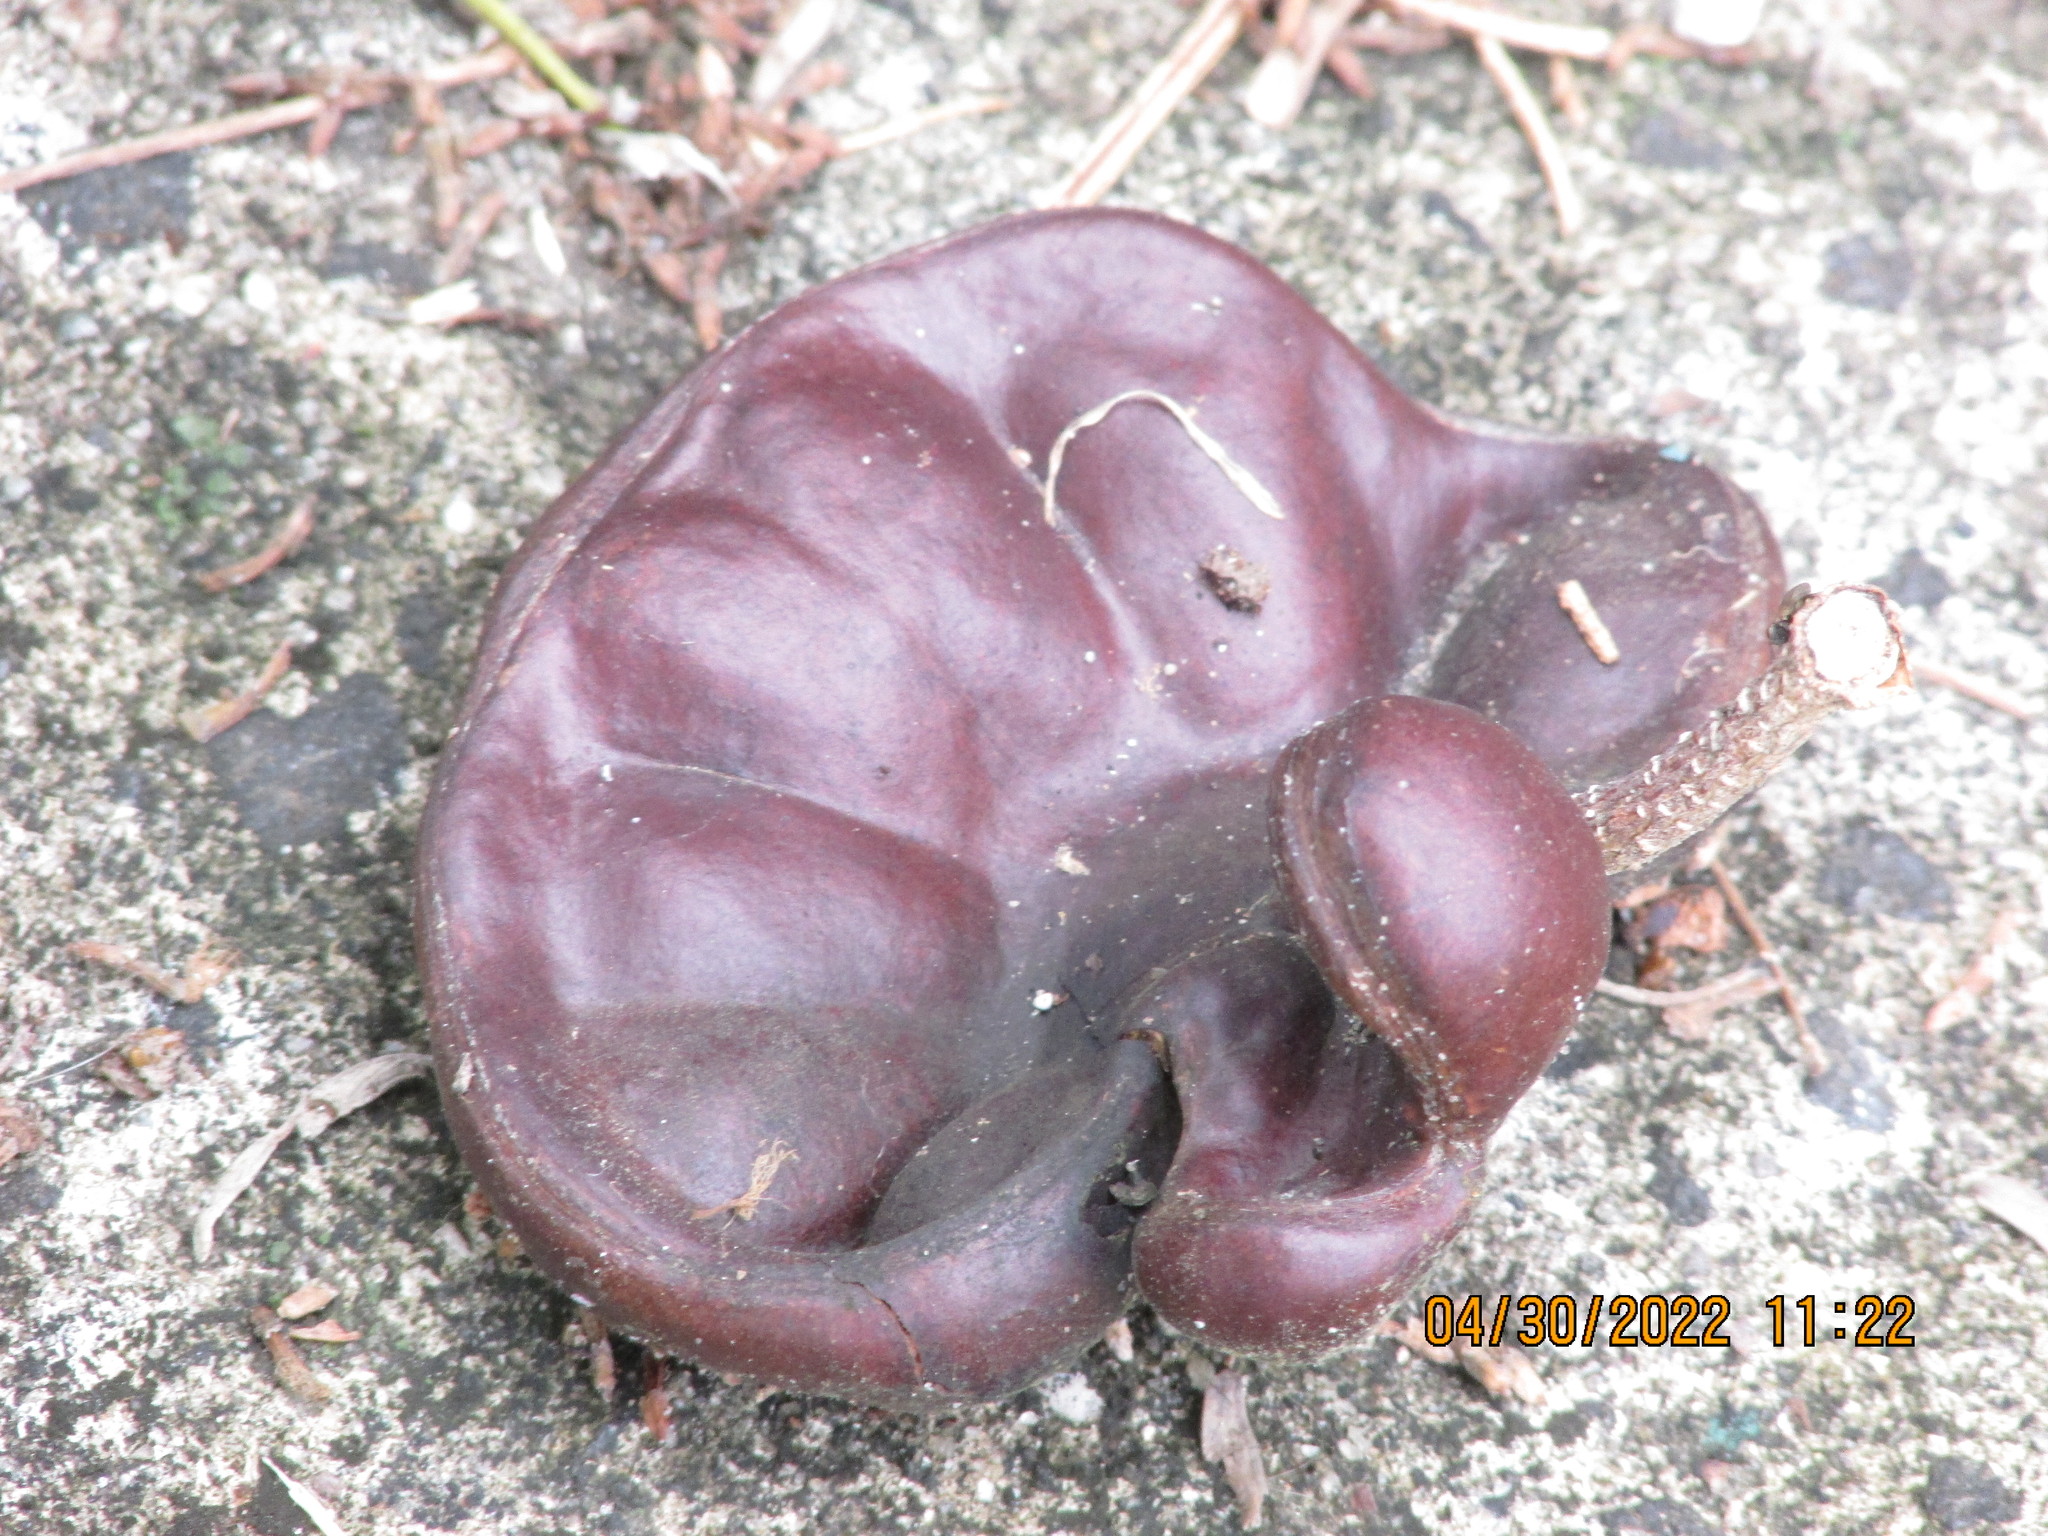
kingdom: Plantae
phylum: Tracheophyta
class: Magnoliopsida
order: Fabales
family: Fabaceae
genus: Enterolobium
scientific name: Enterolobium cyclocarpum
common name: Ear tree
